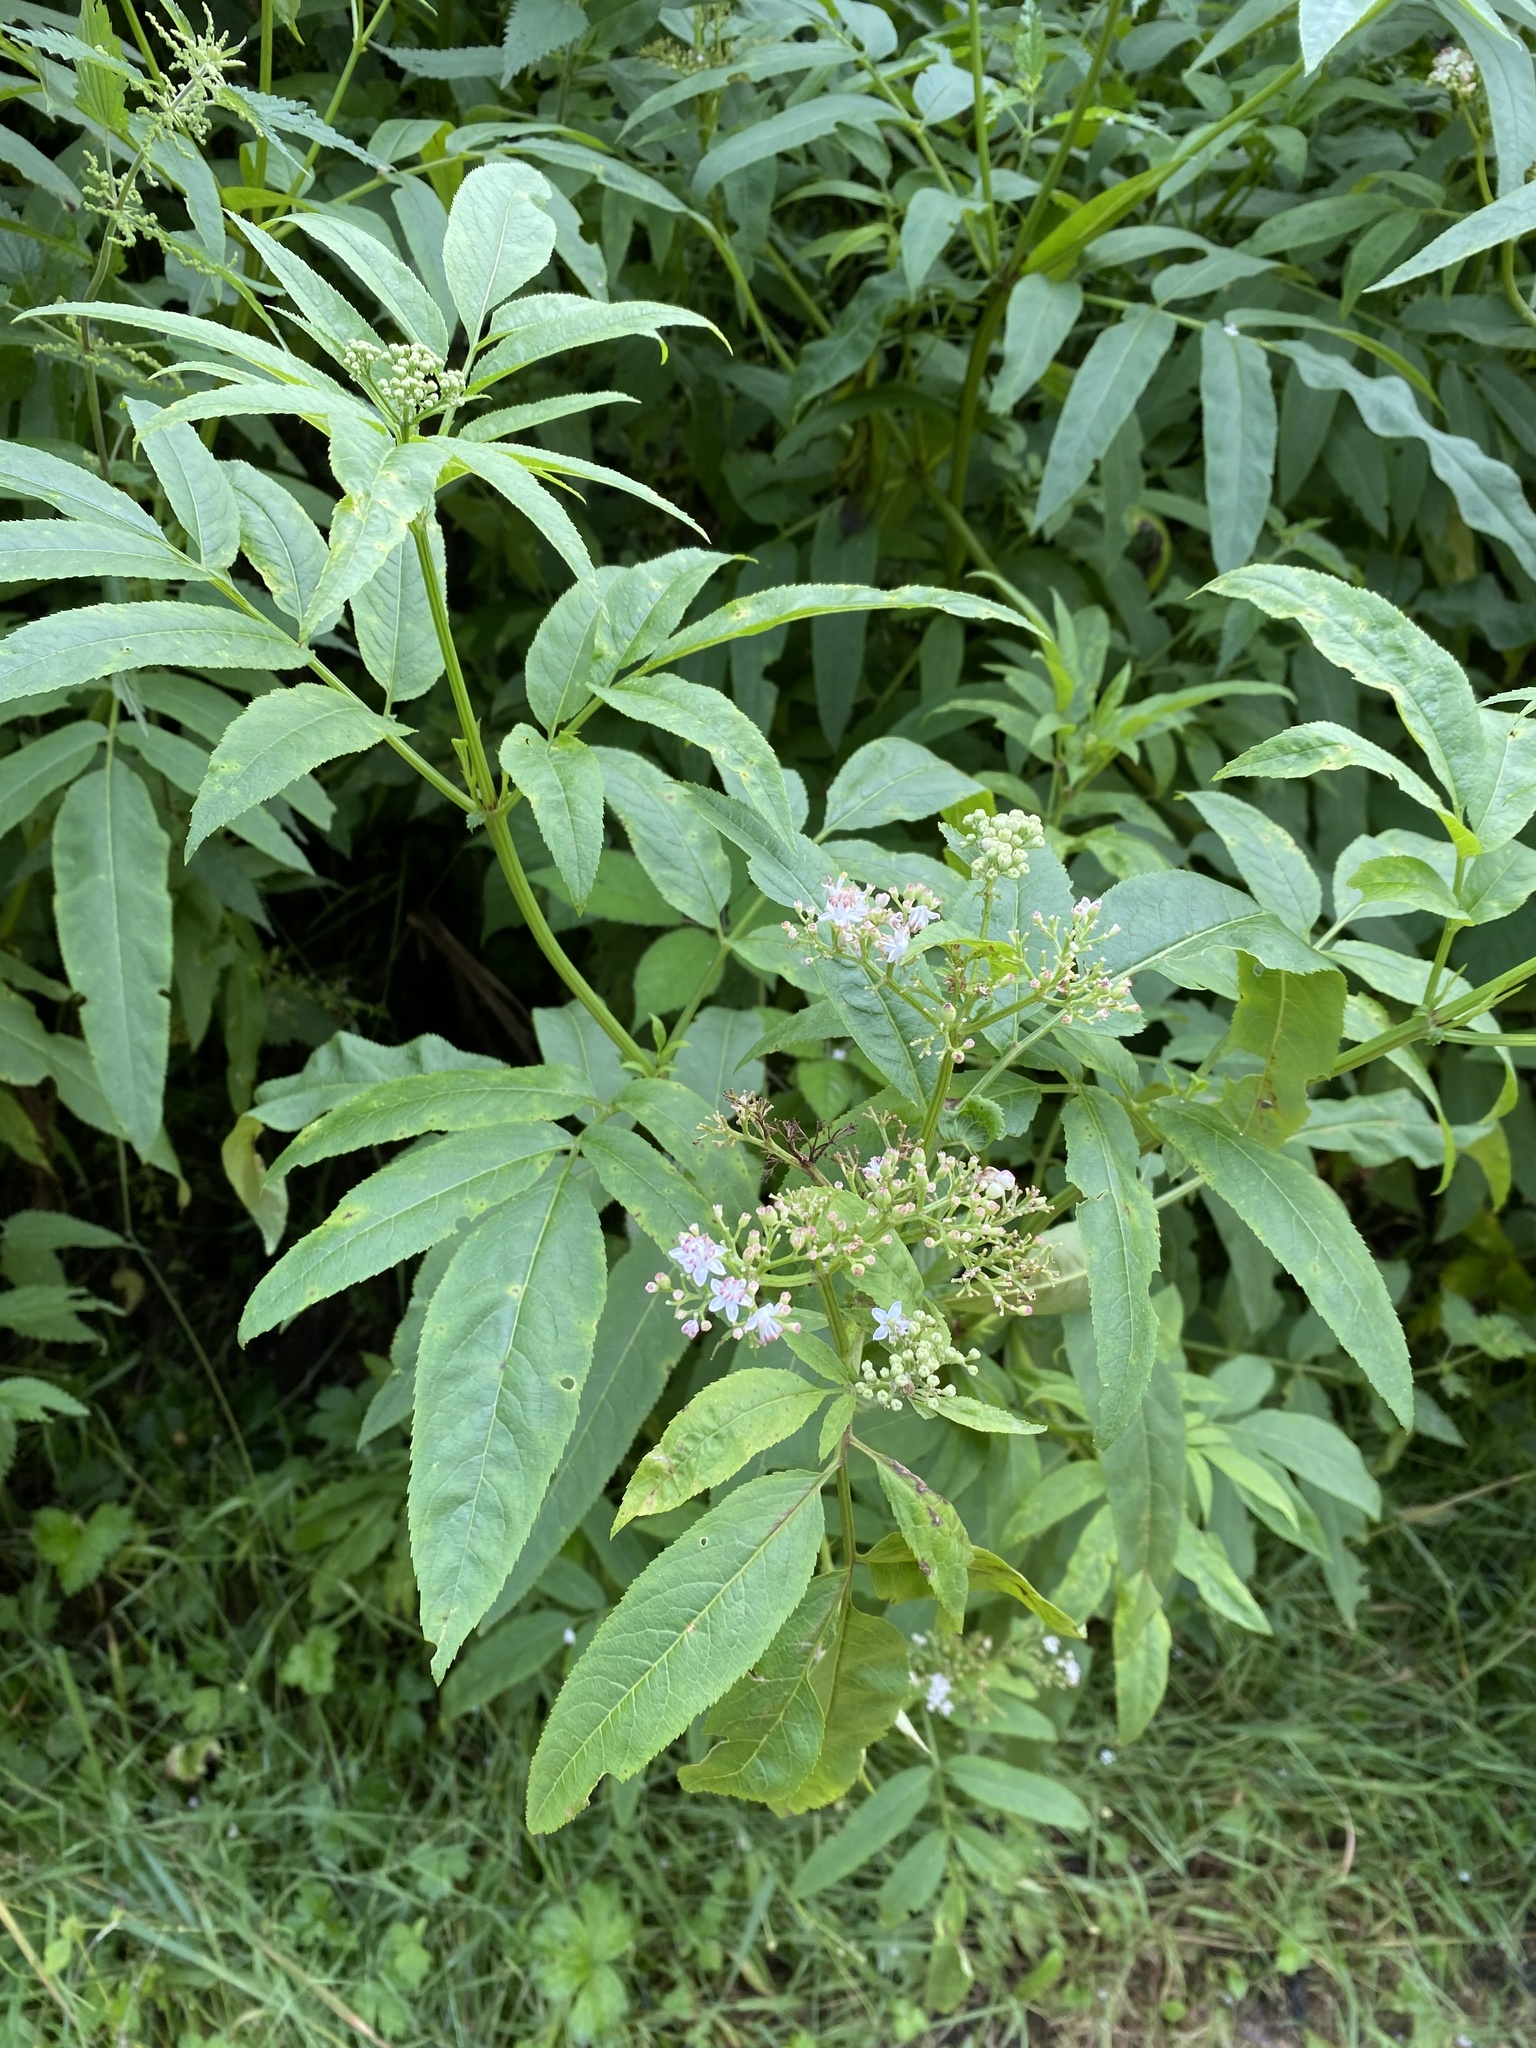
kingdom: Plantae
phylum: Tracheophyta
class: Magnoliopsida
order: Dipsacales
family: Viburnaceae
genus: Sambucus
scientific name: Sambucus ebulus
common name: Dwarf elder
